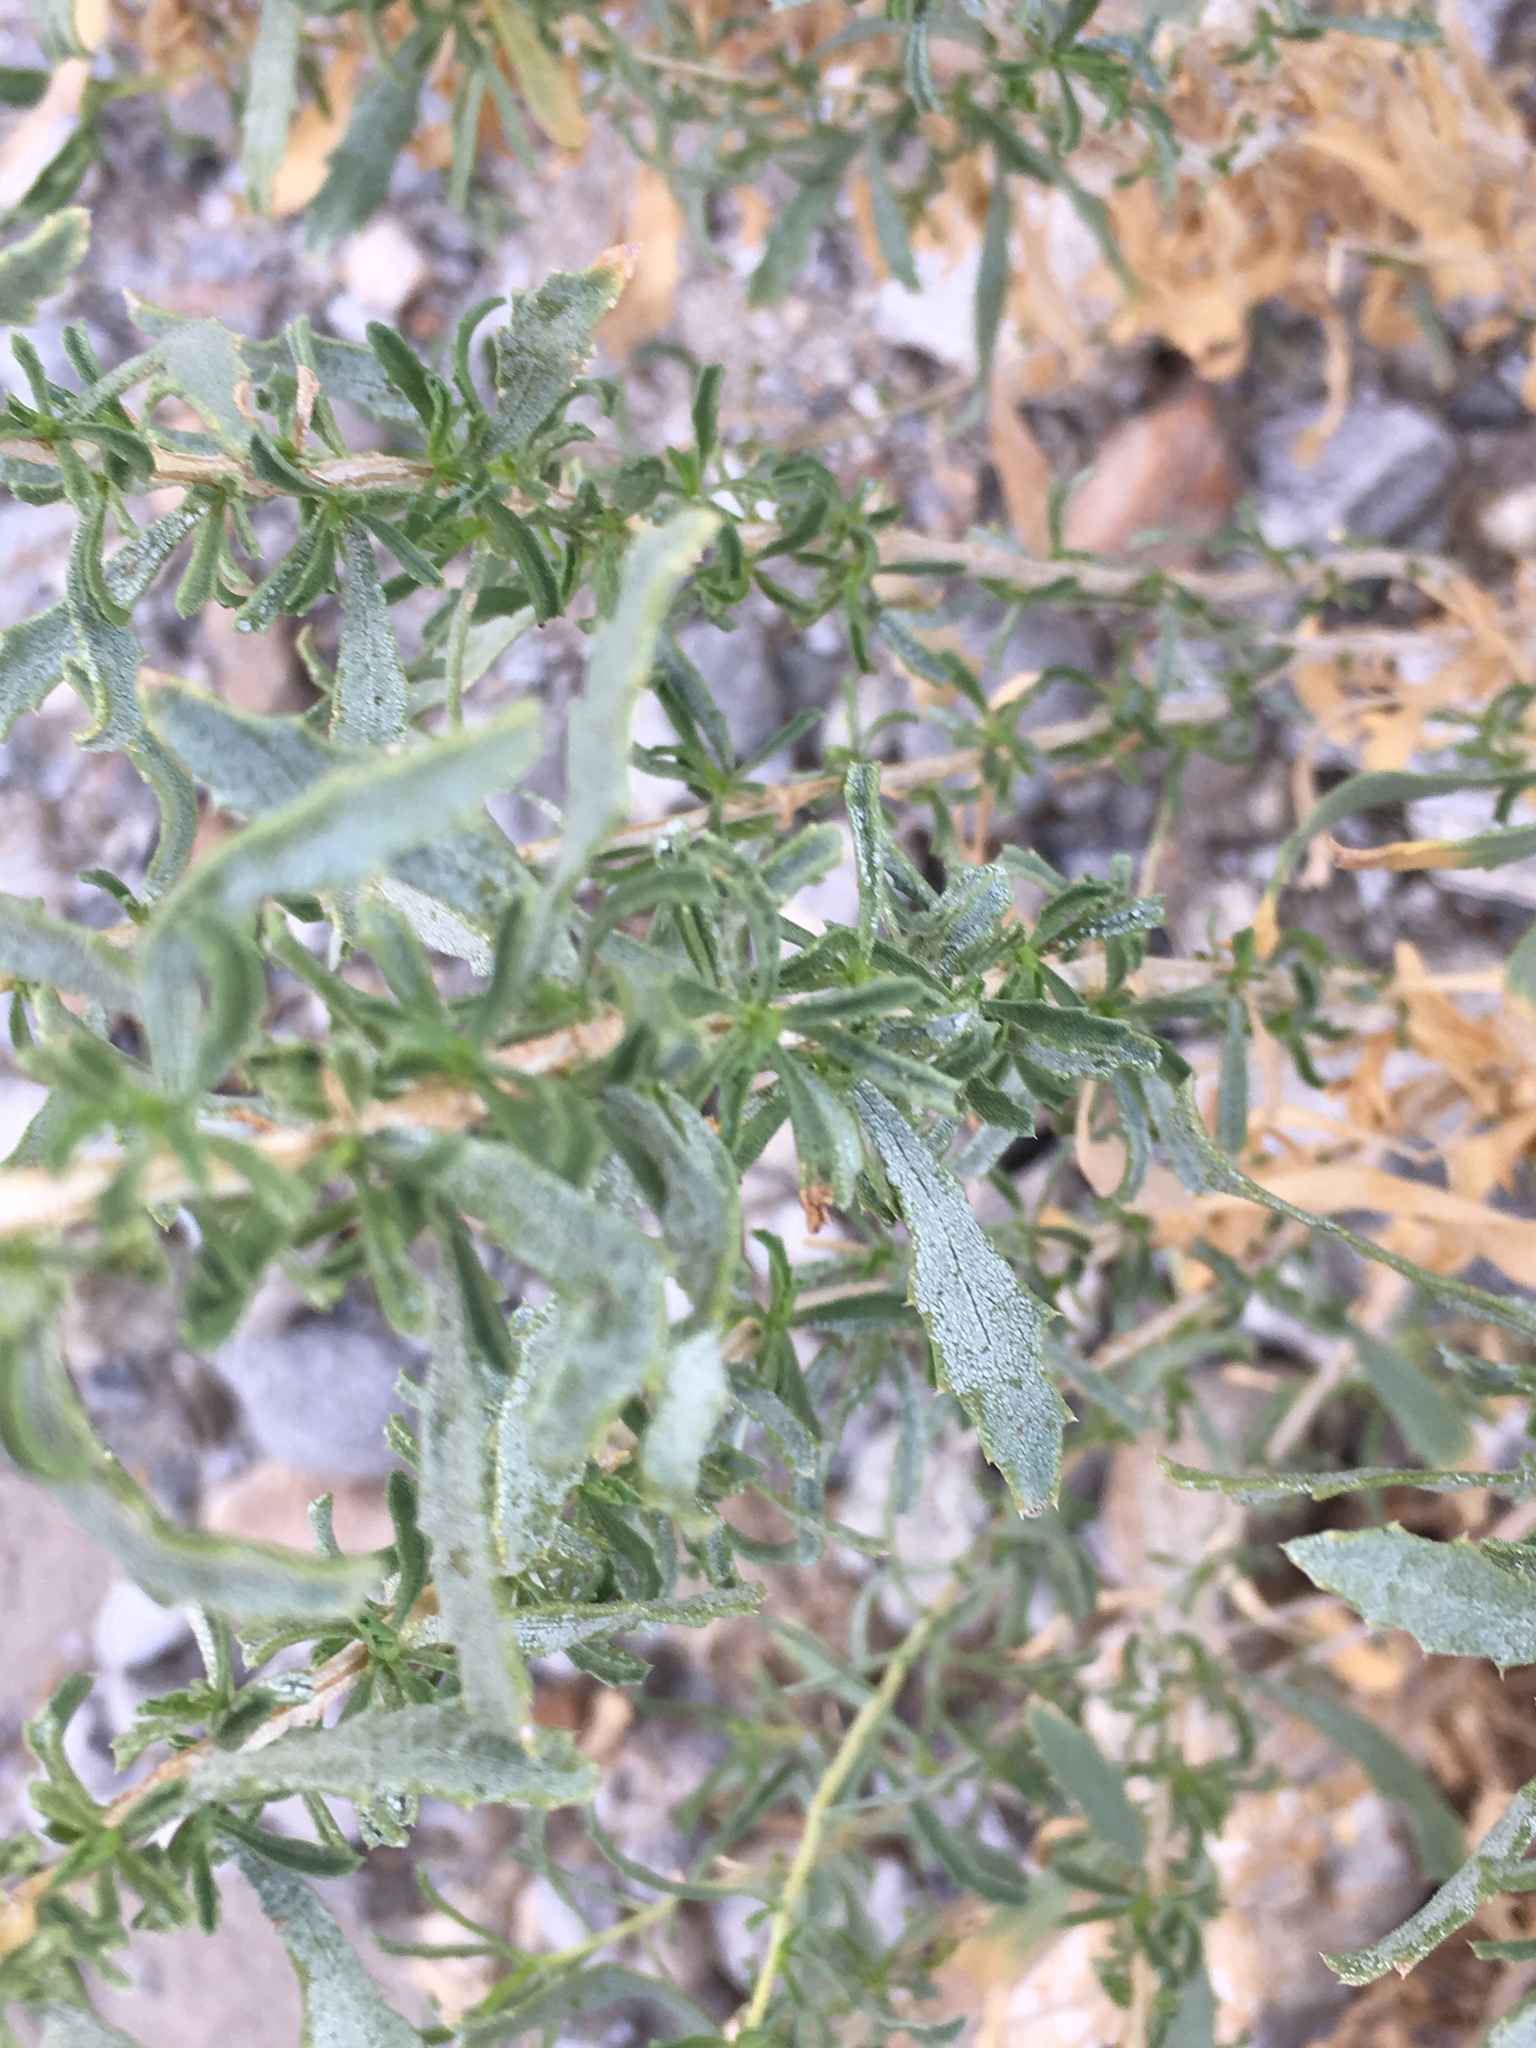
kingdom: Plantae
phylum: Tracheophyta
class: Magnoliopsida
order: Asterales
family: Asteraceae
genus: Isocoma
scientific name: Isocoma acradenia
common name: Alkali jimmyweed
